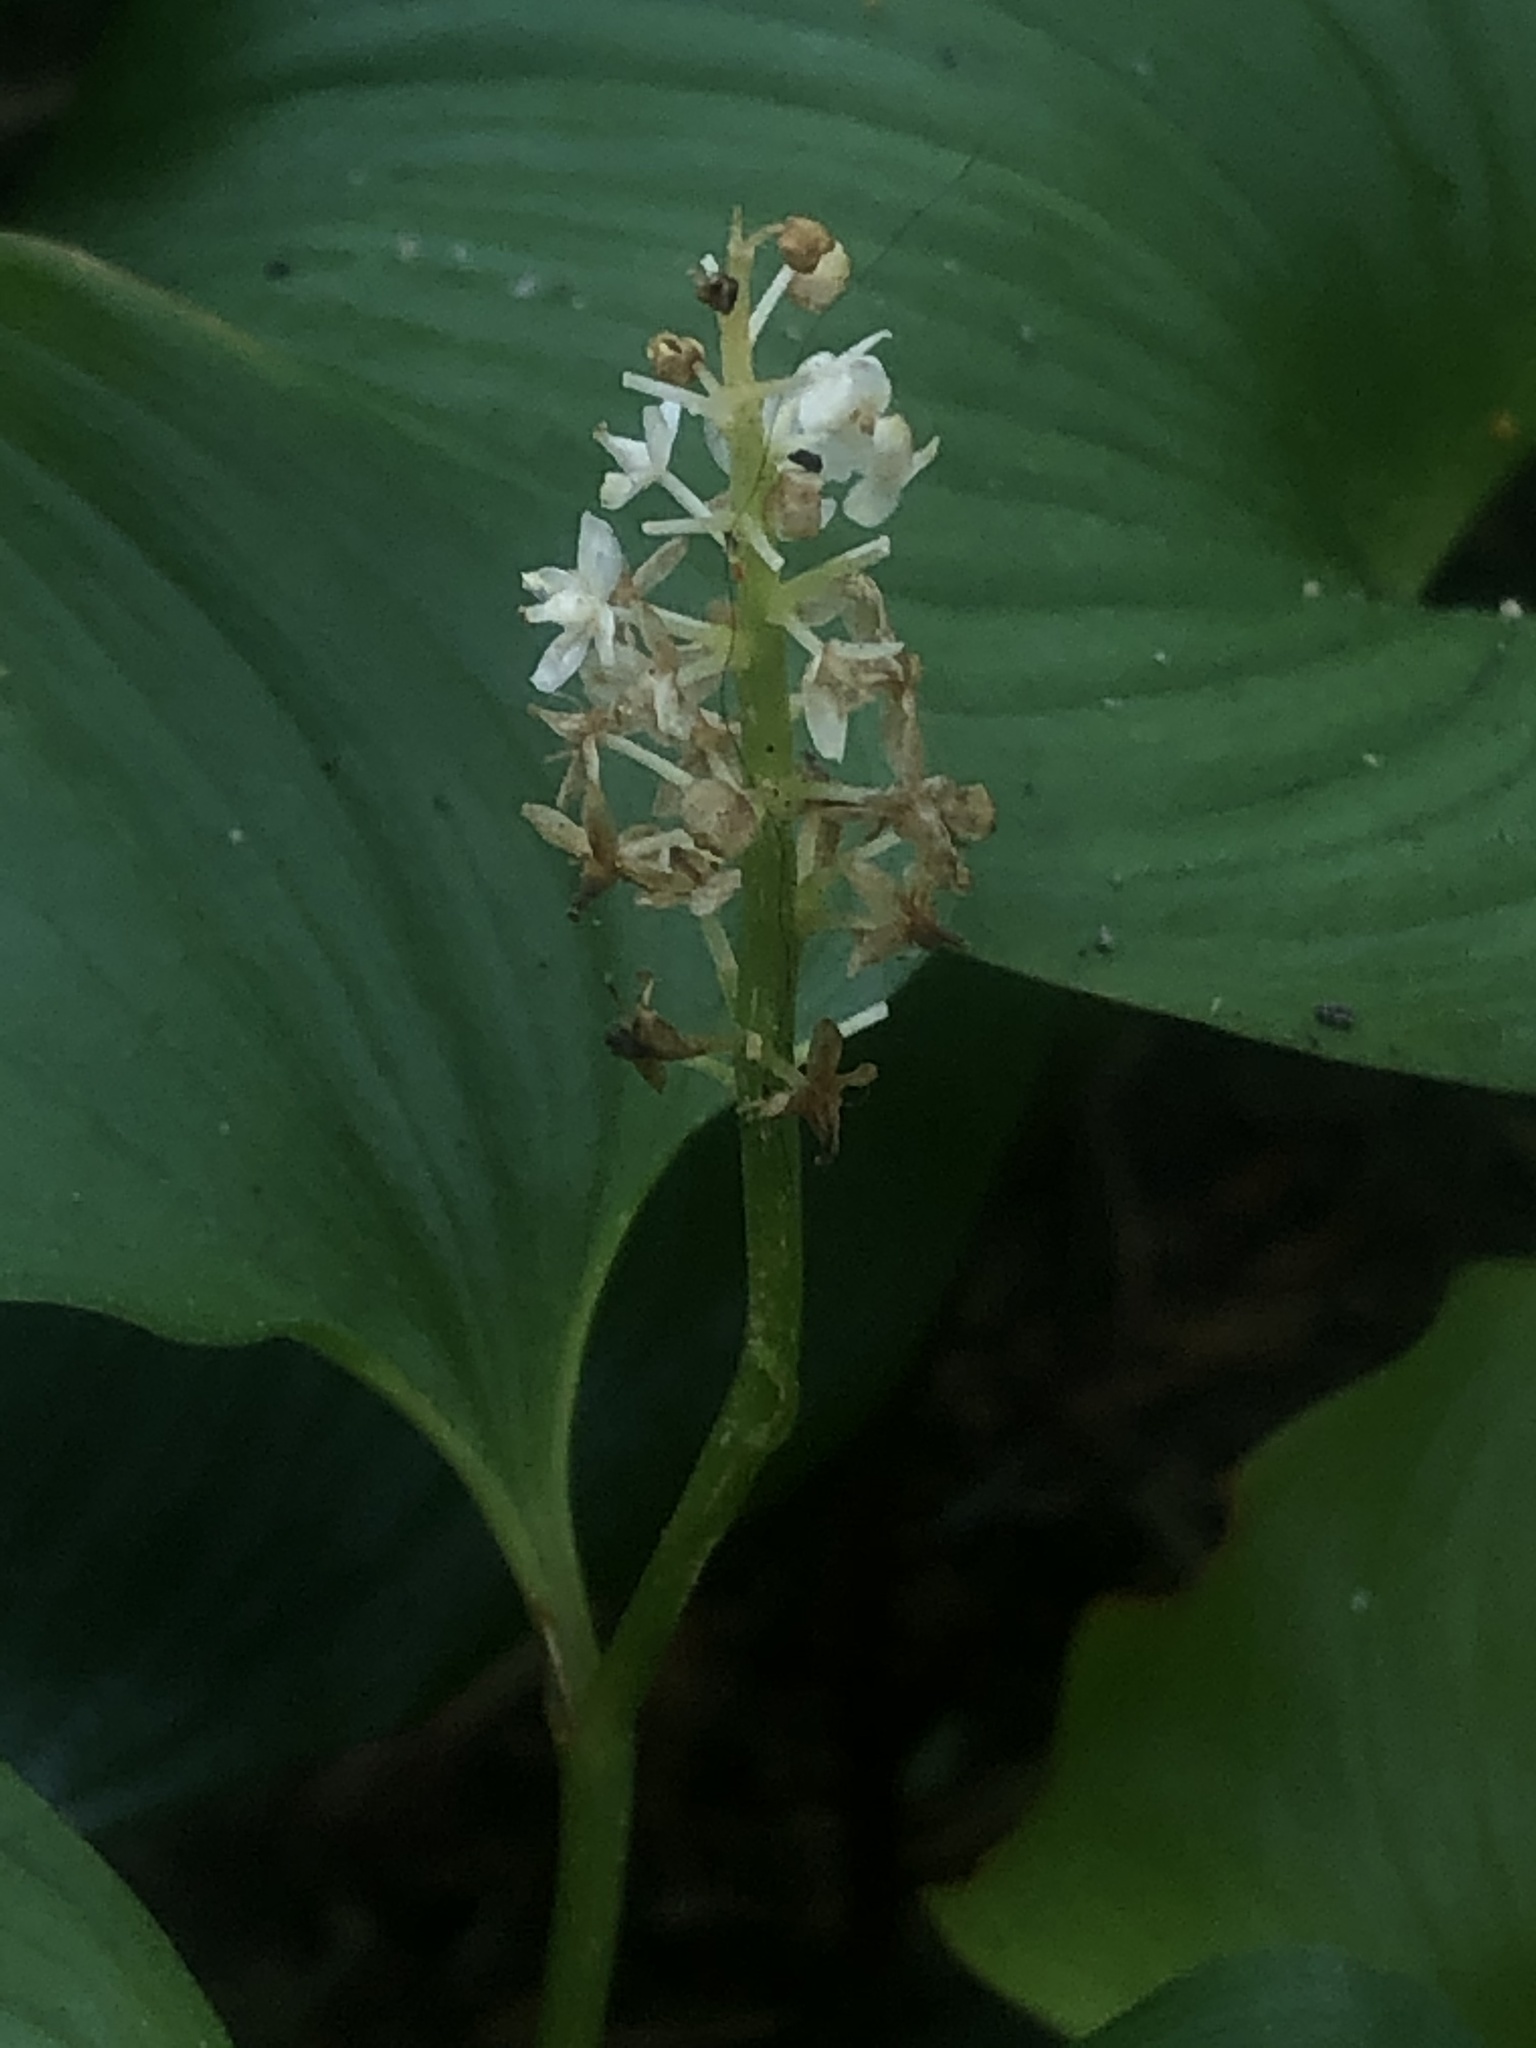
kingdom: Plantae
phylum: Tracheophyta
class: Liliopsida
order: Asparagales
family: Asparagaceae
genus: Maianthemum
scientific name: Maianthemum dilatatum
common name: False lily-of-the-valley
